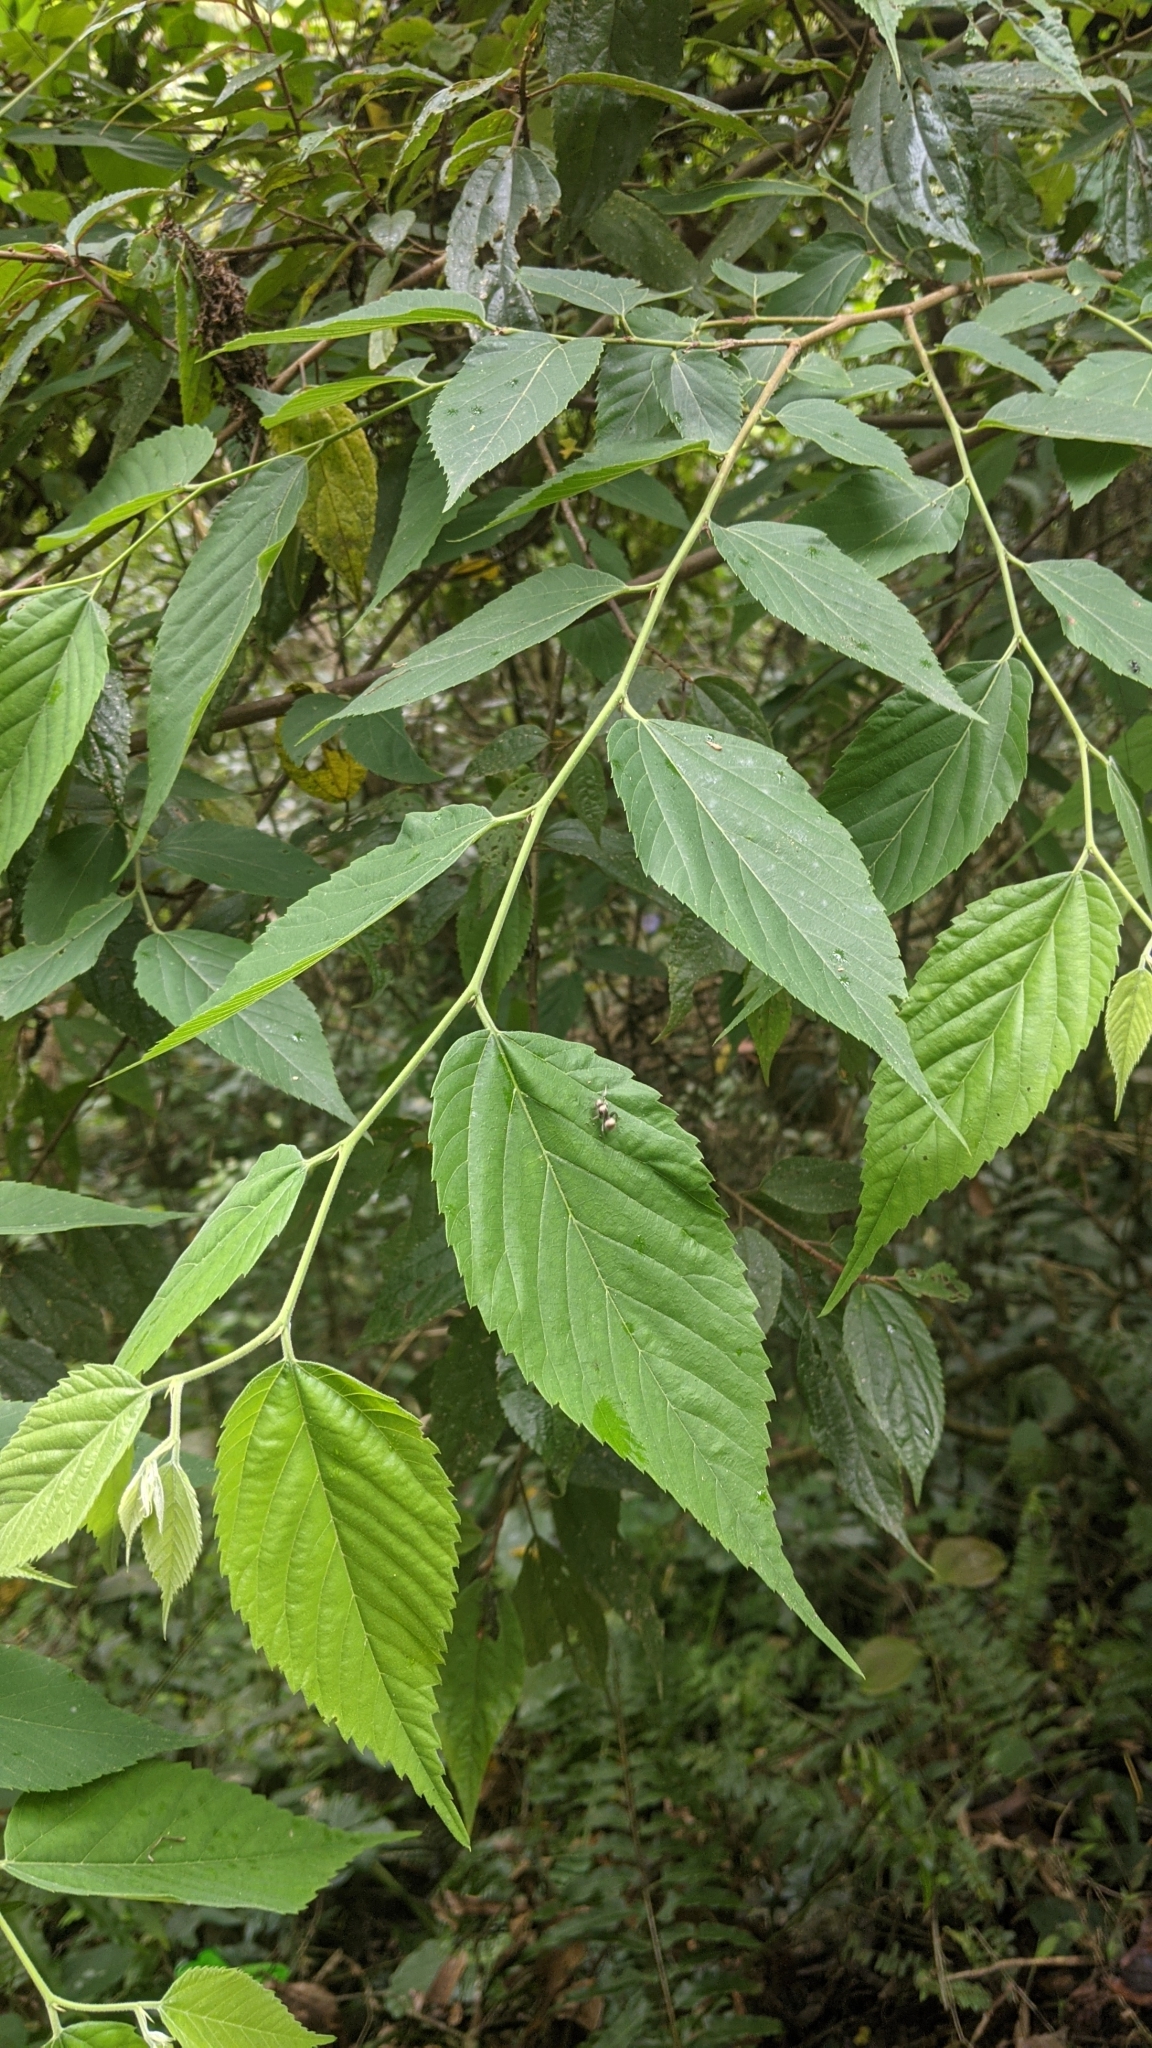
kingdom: Plantae
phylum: Tracheophyta
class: Magnoliopsida
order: Rosales
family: Cannabaceae
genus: Aphananthe
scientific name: Aphananthe aspera
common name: Mukutree
